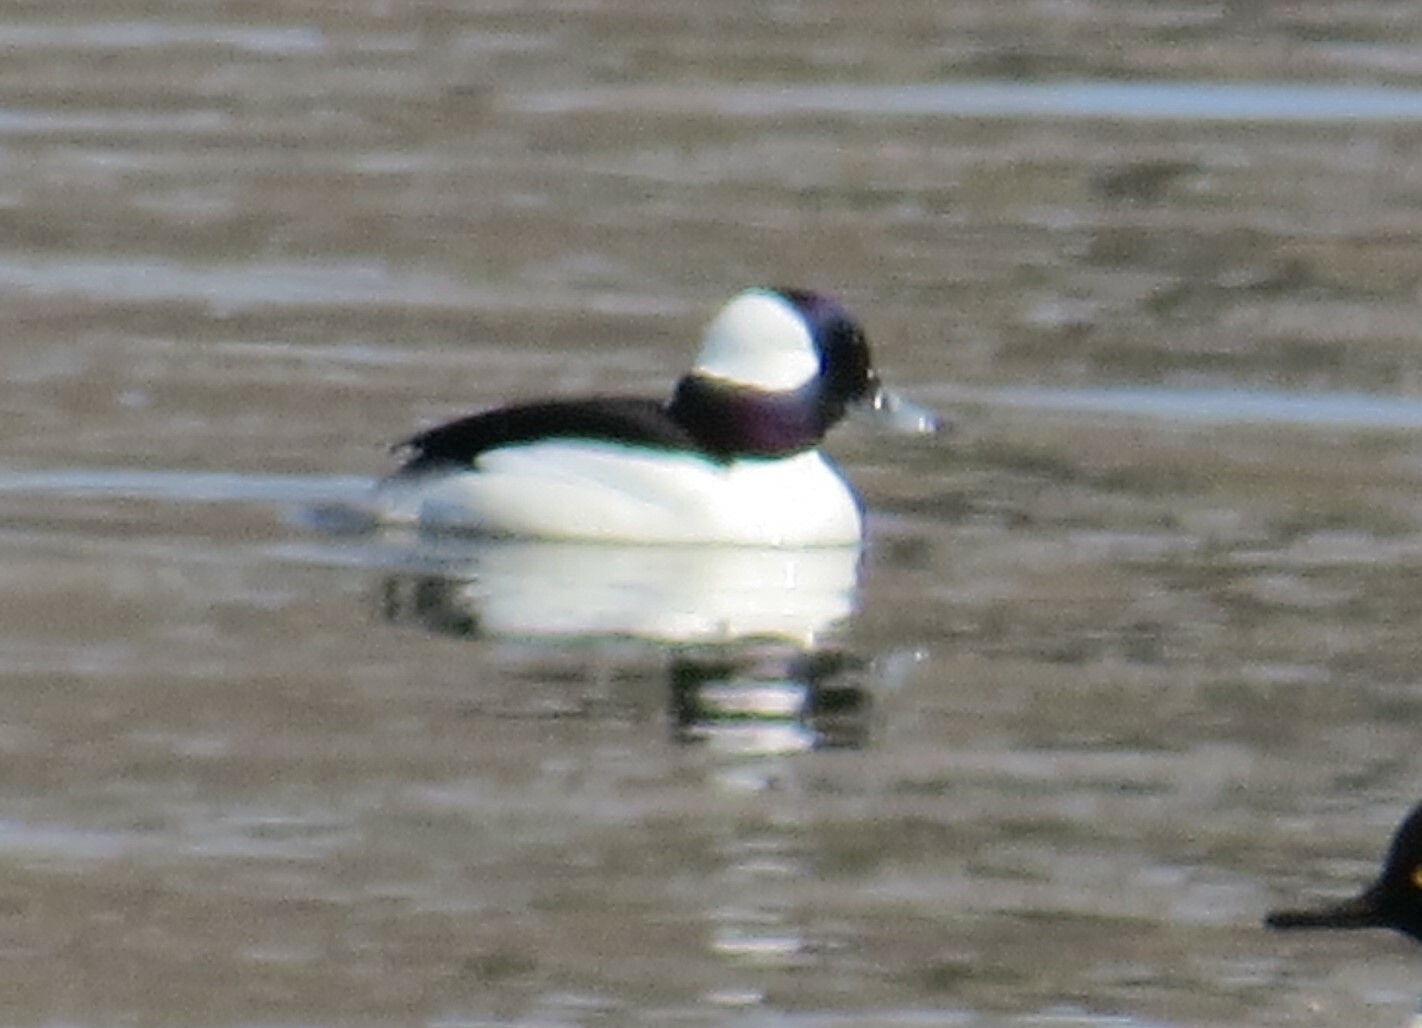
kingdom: Animalia
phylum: Chordata
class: Aves
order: Anseriformes
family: Anatidae
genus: Bucephala
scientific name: Bucephala albeola
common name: Bufflehead
